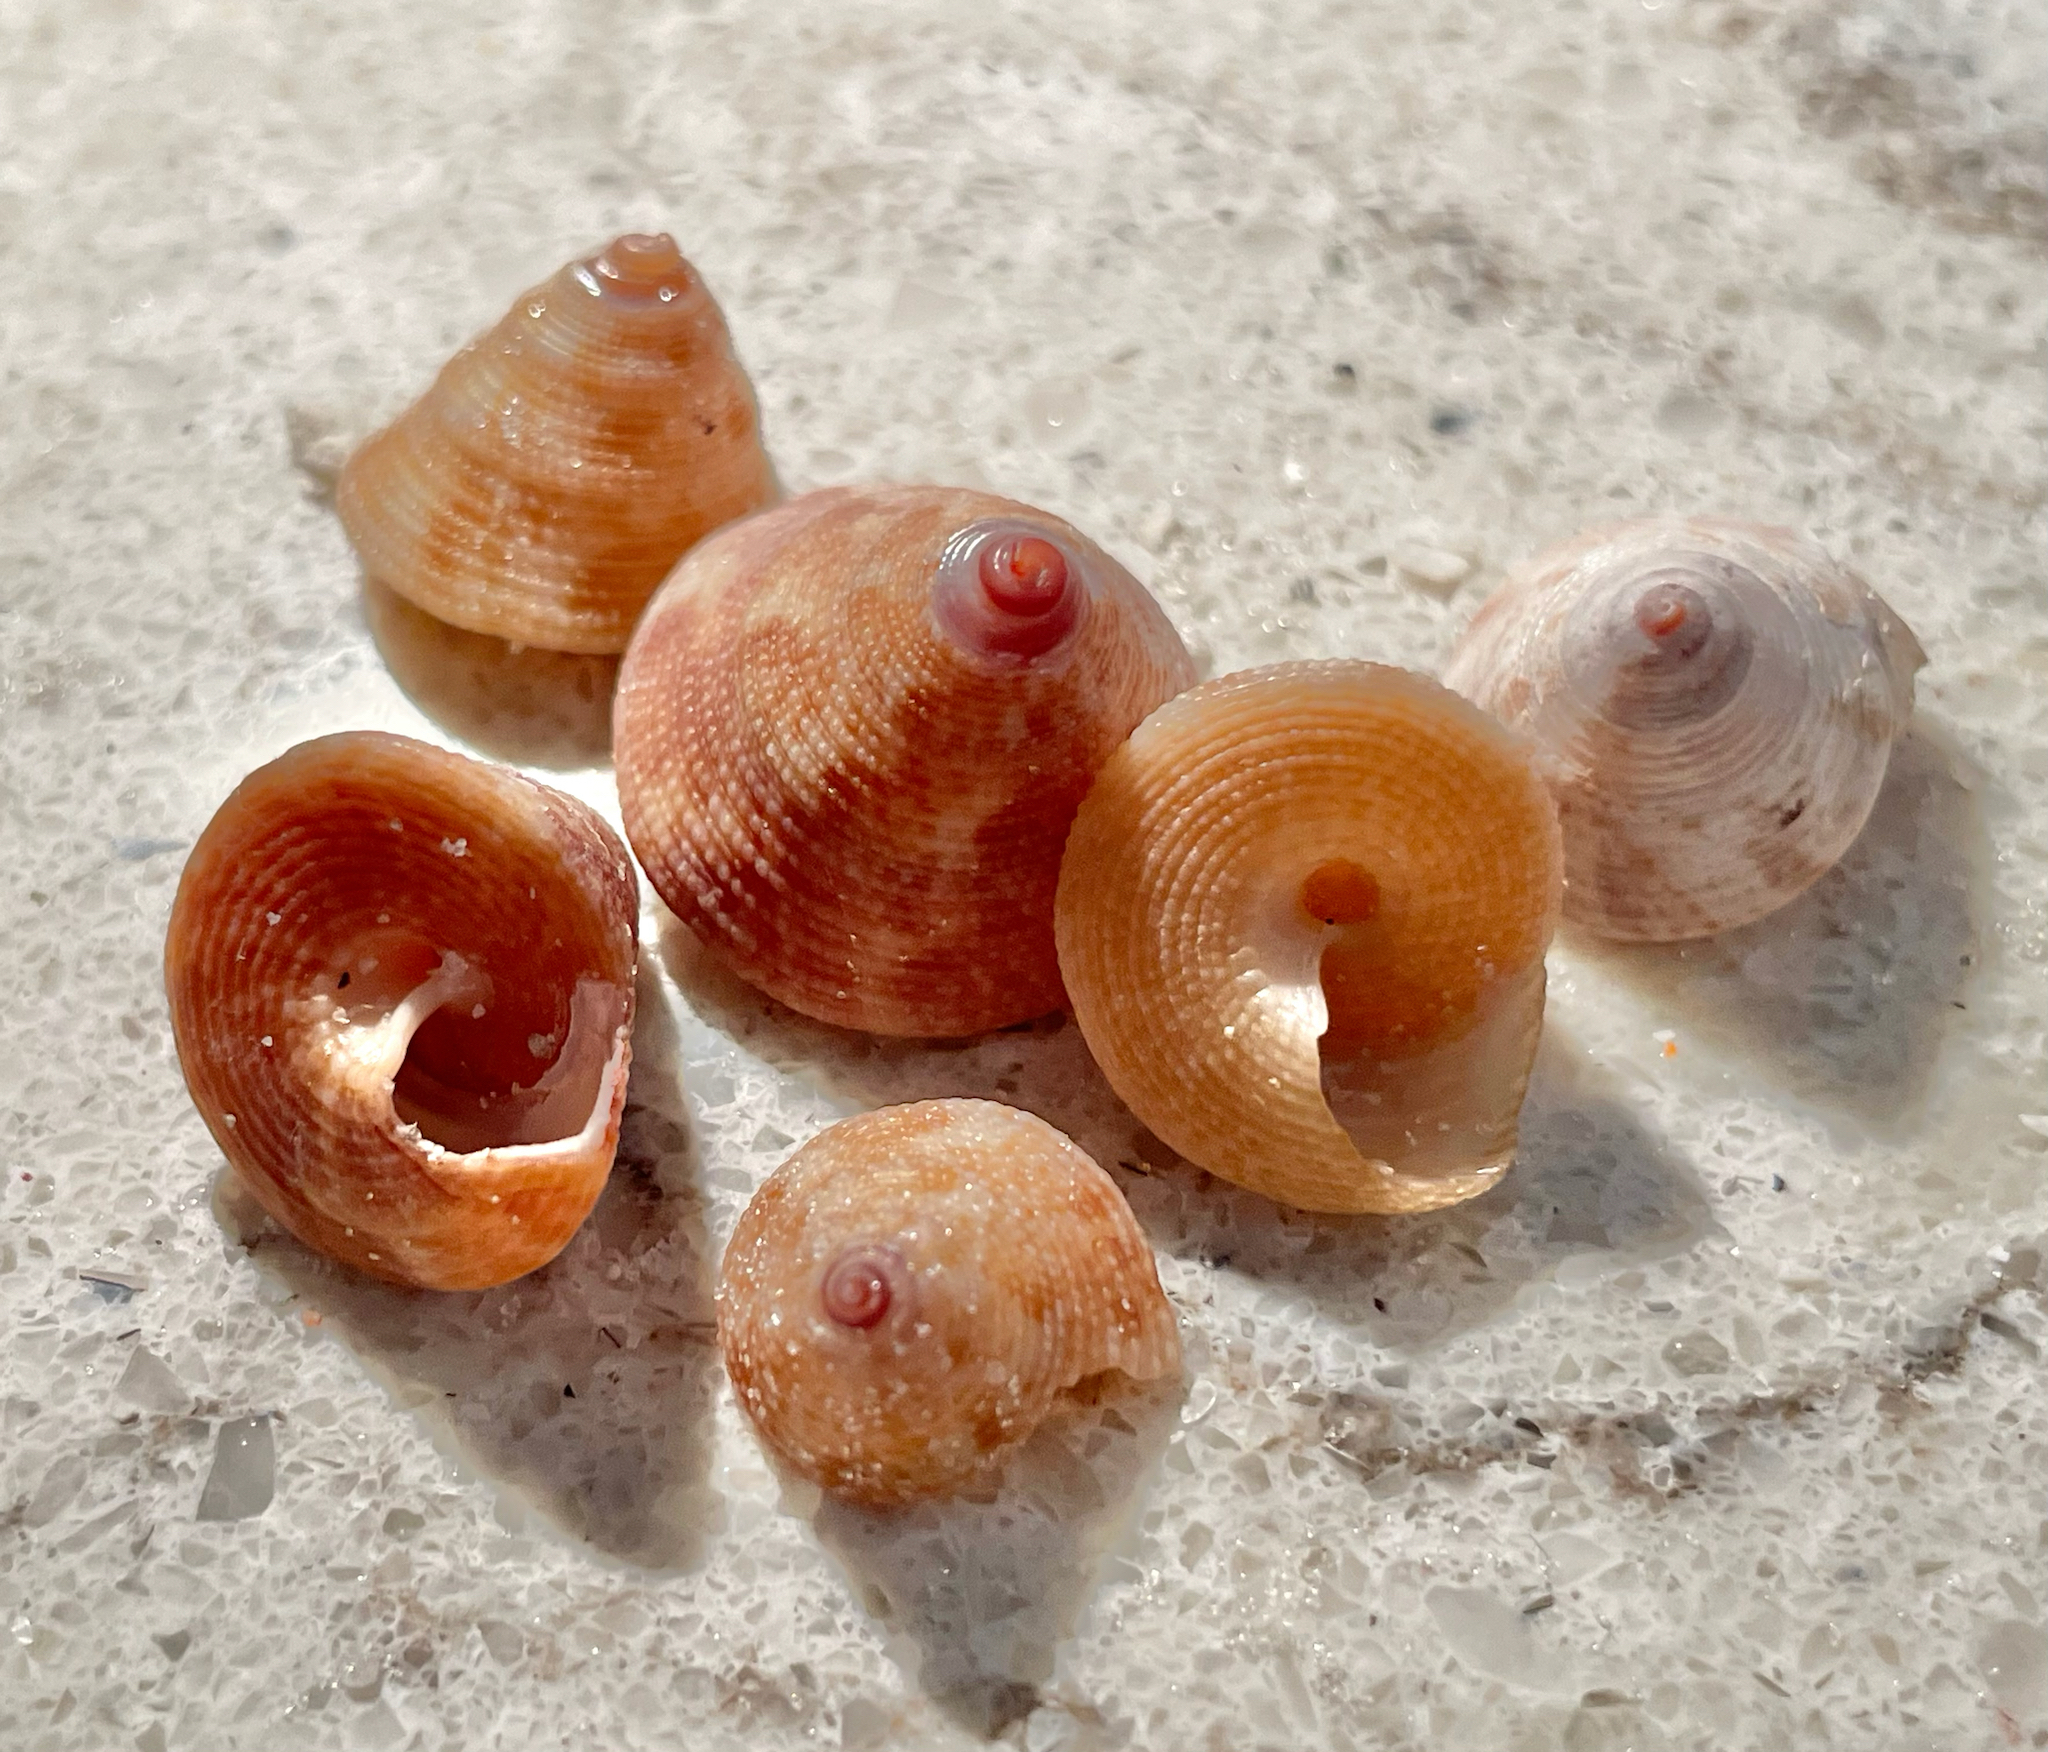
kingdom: Animalia
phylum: Mollusca
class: Gastropoda
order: Trochida
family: Calliostomatidae
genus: Calliostoma
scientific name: Calliostoma jujubinum
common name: Jujube topsnail
